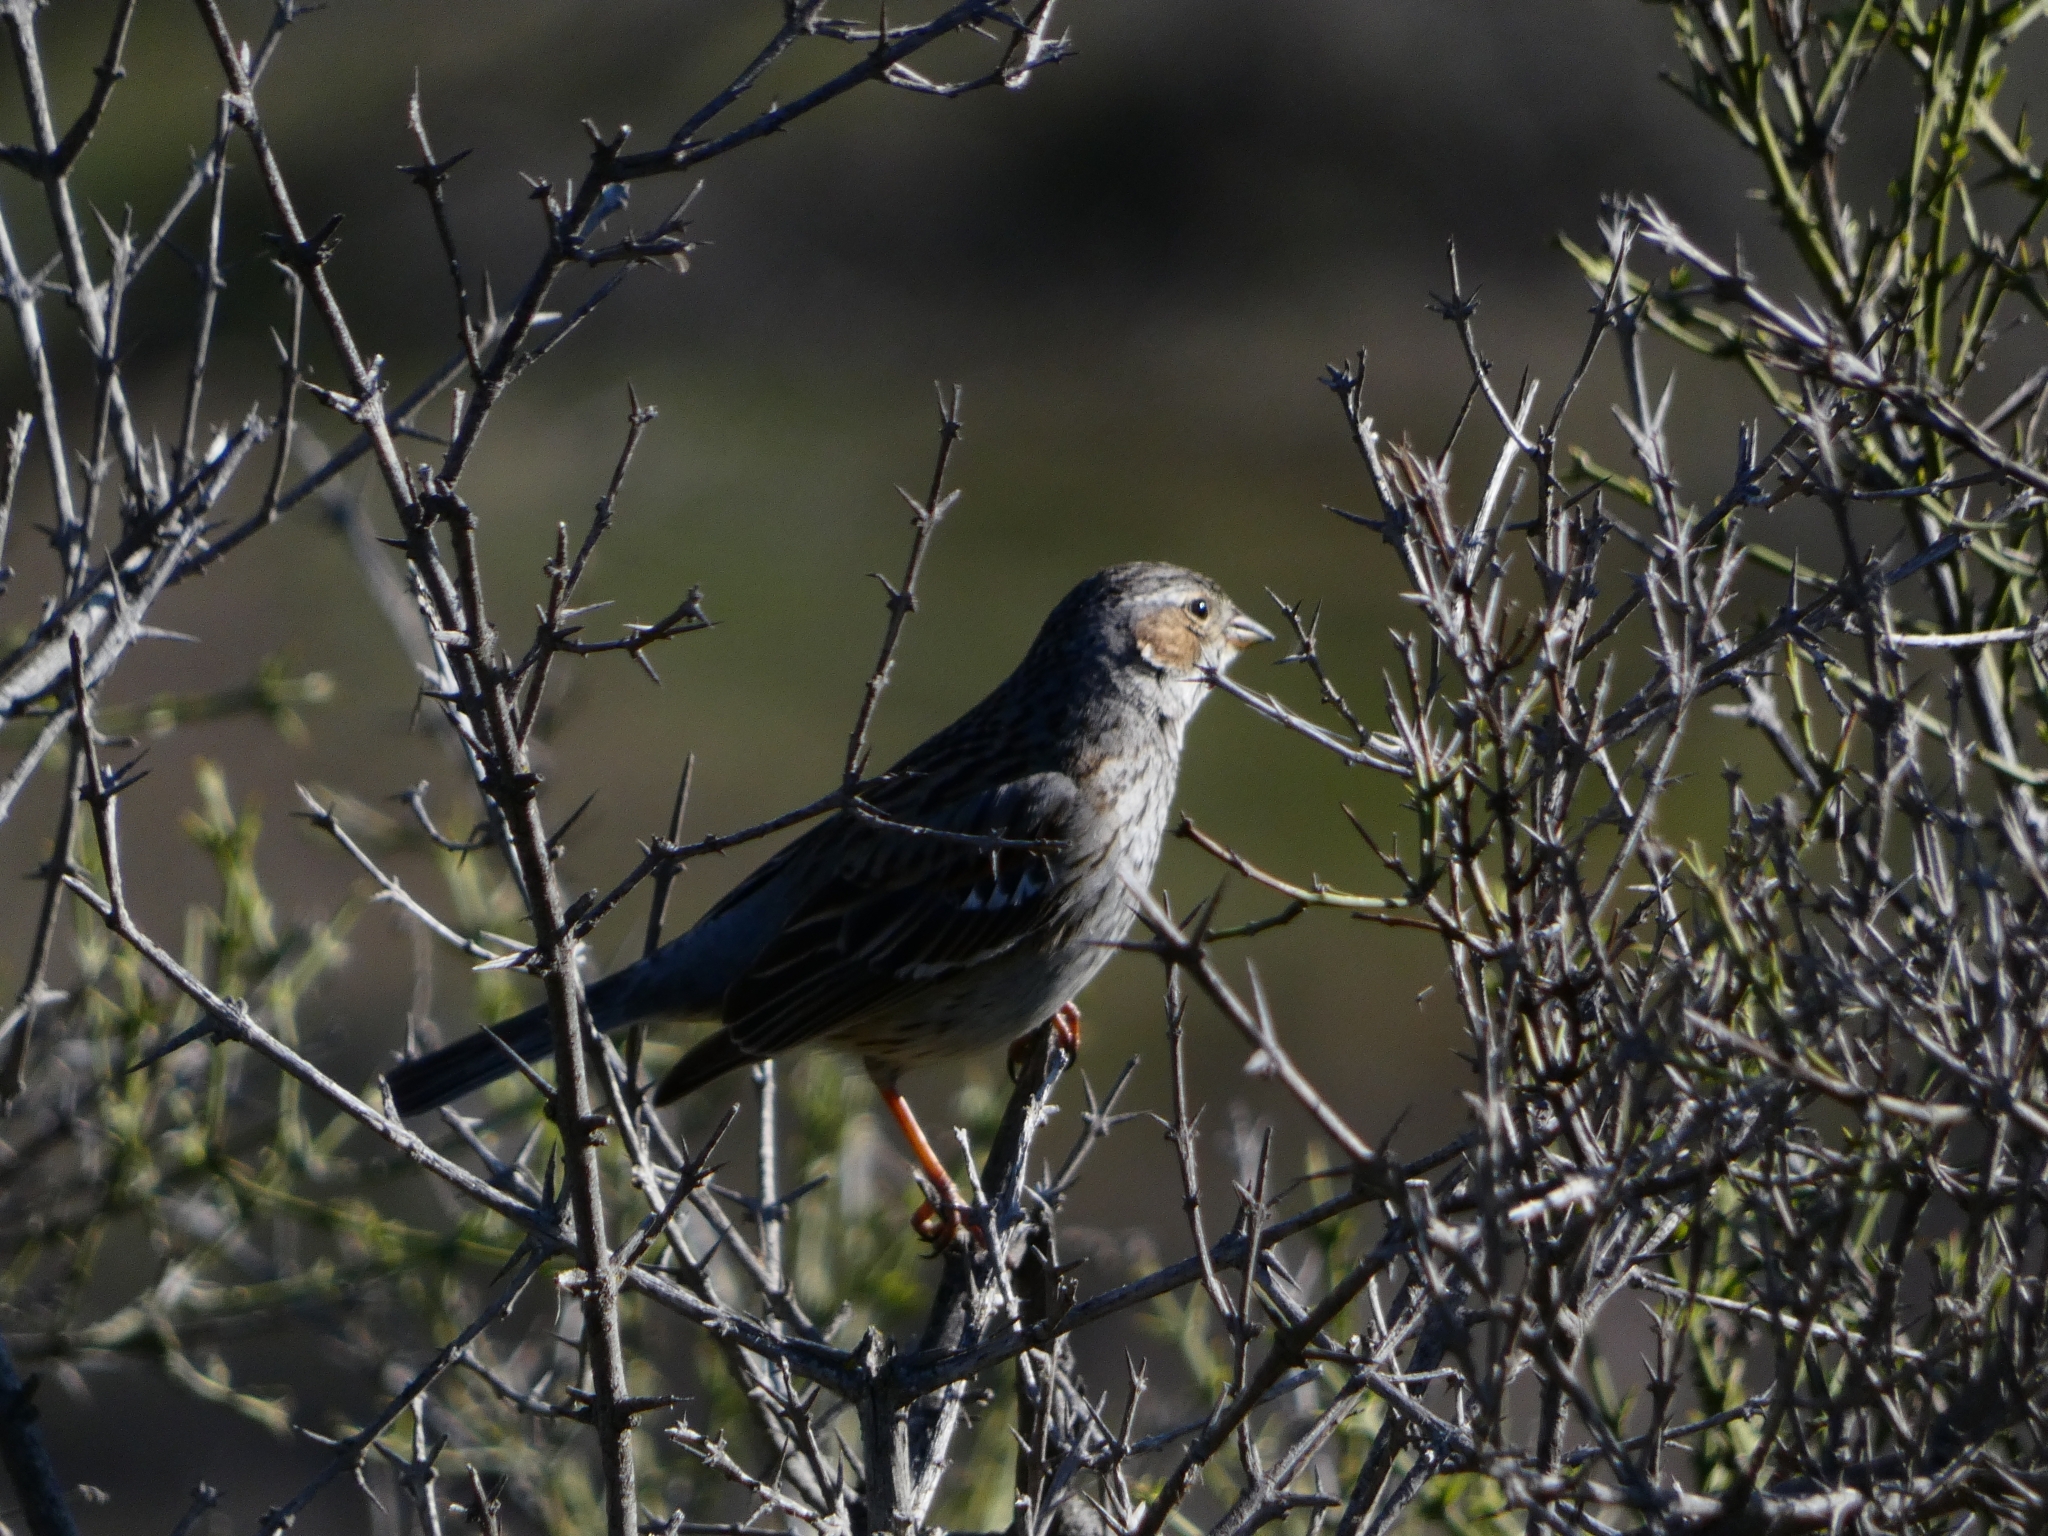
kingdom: Animalia
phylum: Chordata
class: Aves
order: Passeriformes
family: Thraupidae
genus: Rhopospina
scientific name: Rhopospina fruticeti
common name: Mourning sierra finch
